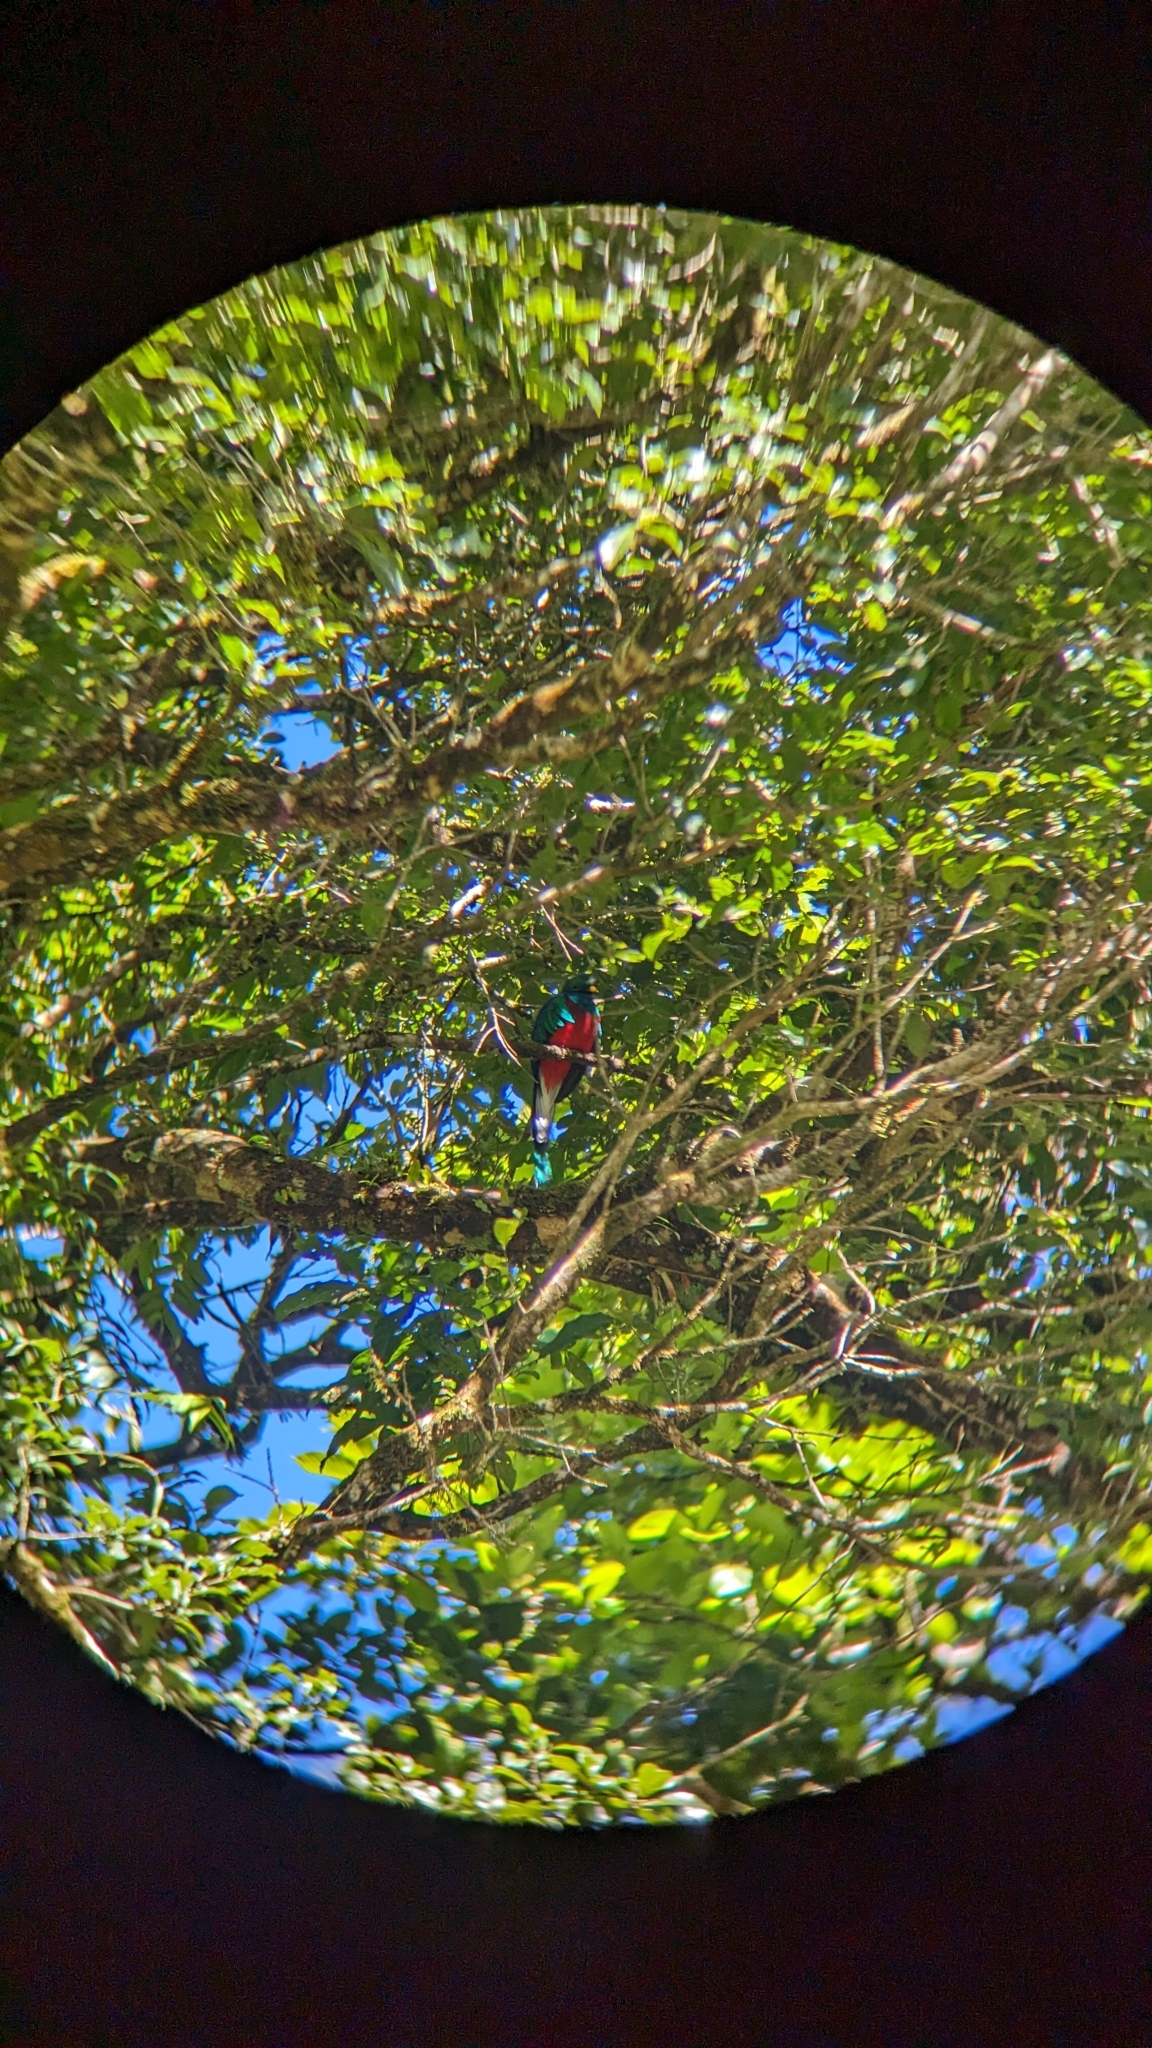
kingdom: Animalia
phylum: Chordata
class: Aves
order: Trogoniformes
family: Trogonidae
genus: Pharomachrus
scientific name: Pharomachrus mocinno
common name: Resplendent quetzal
